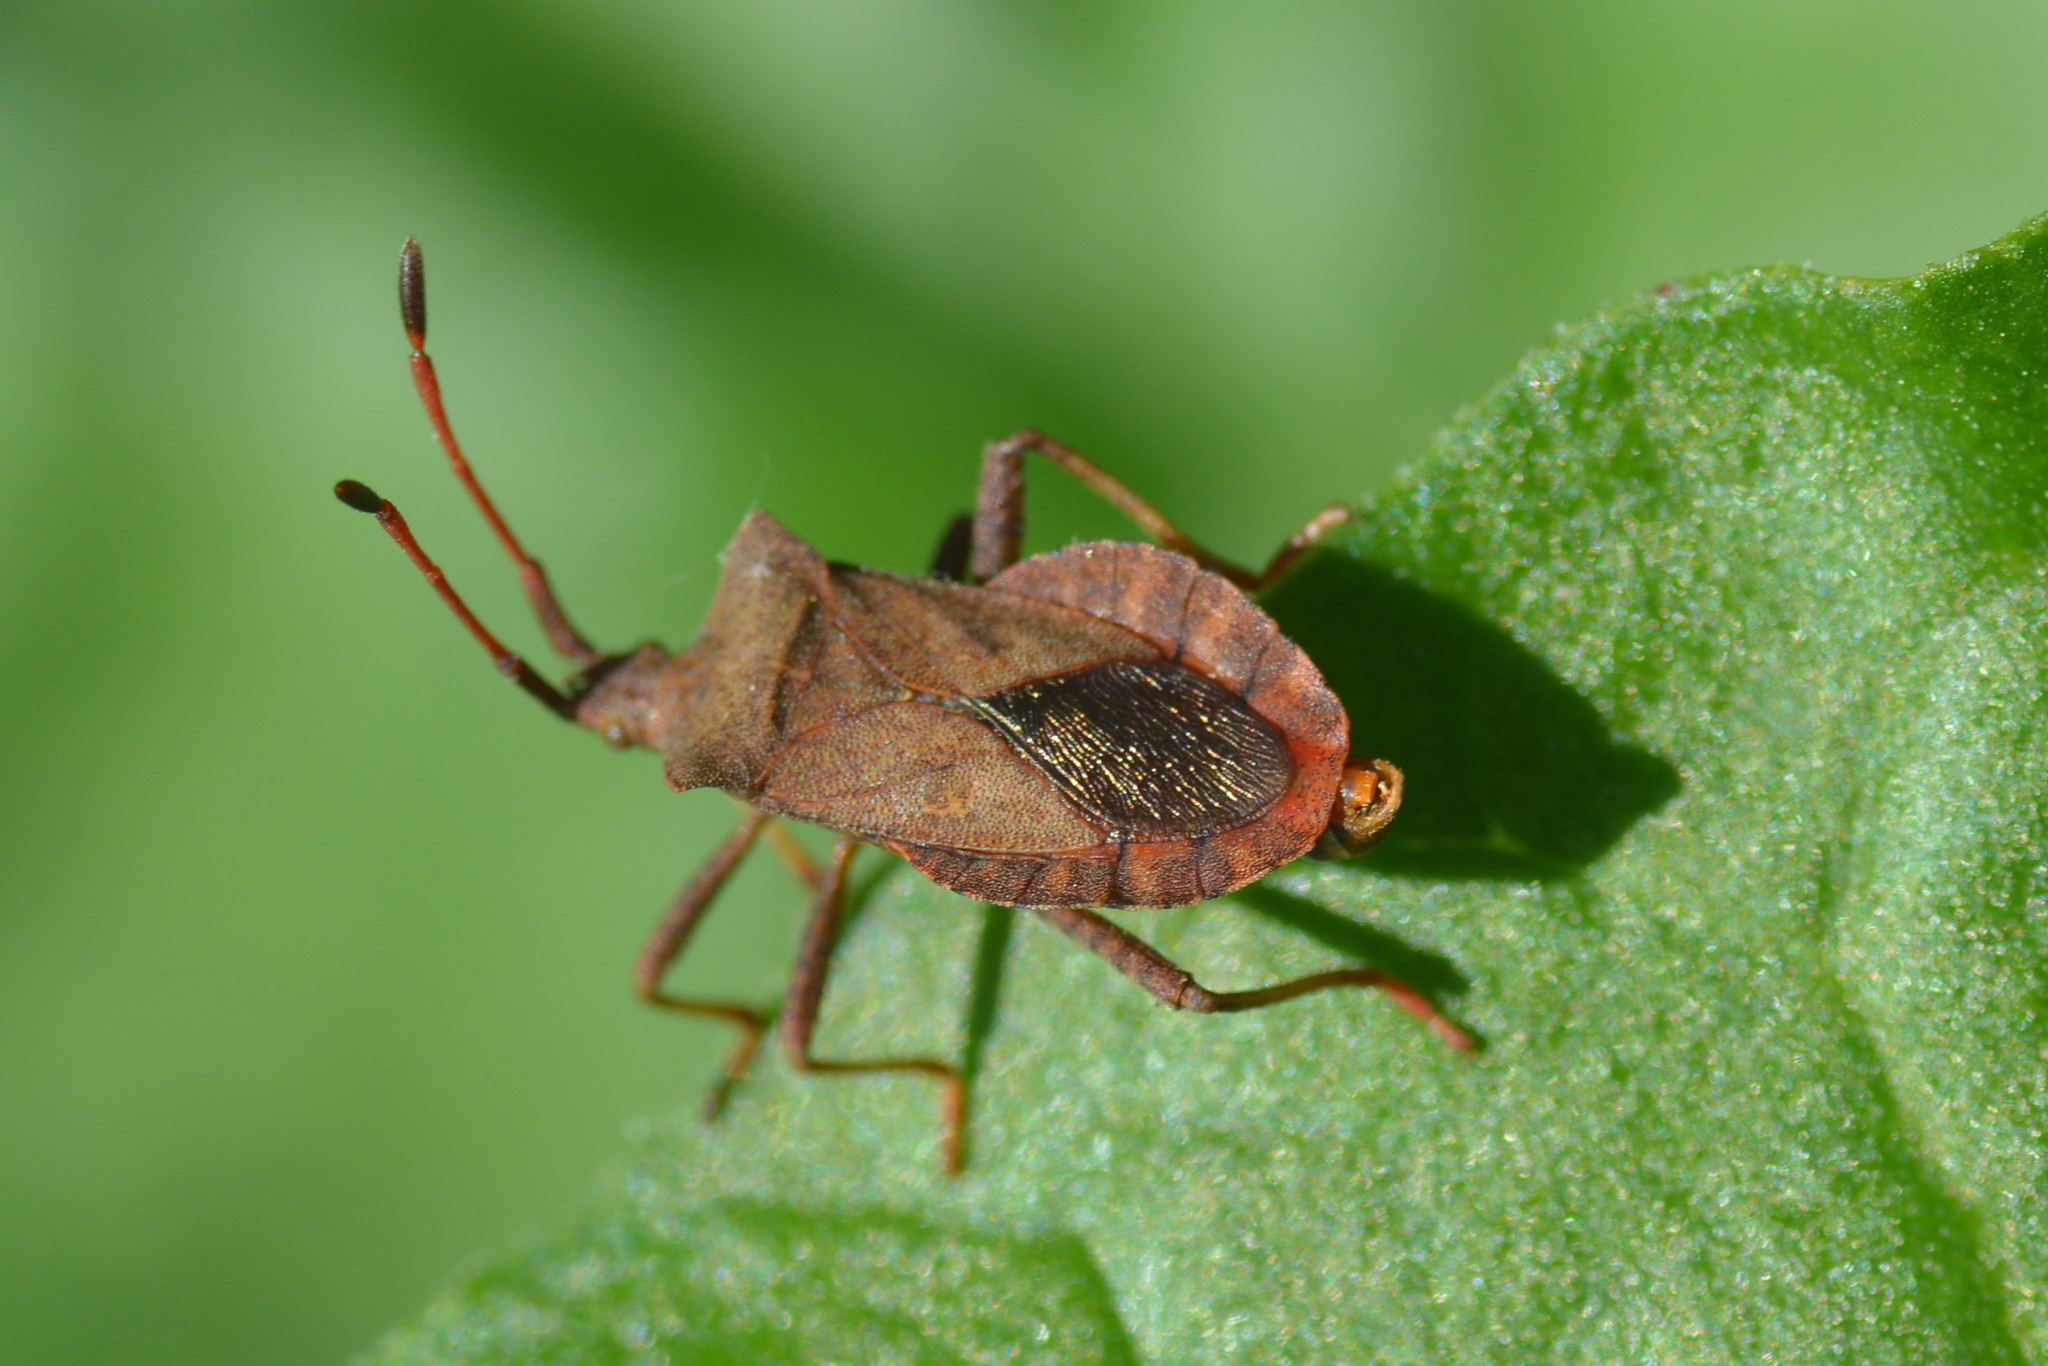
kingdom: Animalia
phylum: Arthropoda
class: Insecta
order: Hemiptera
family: Coreidae
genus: Coreus
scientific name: Coreus marginatus
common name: Dock bug
